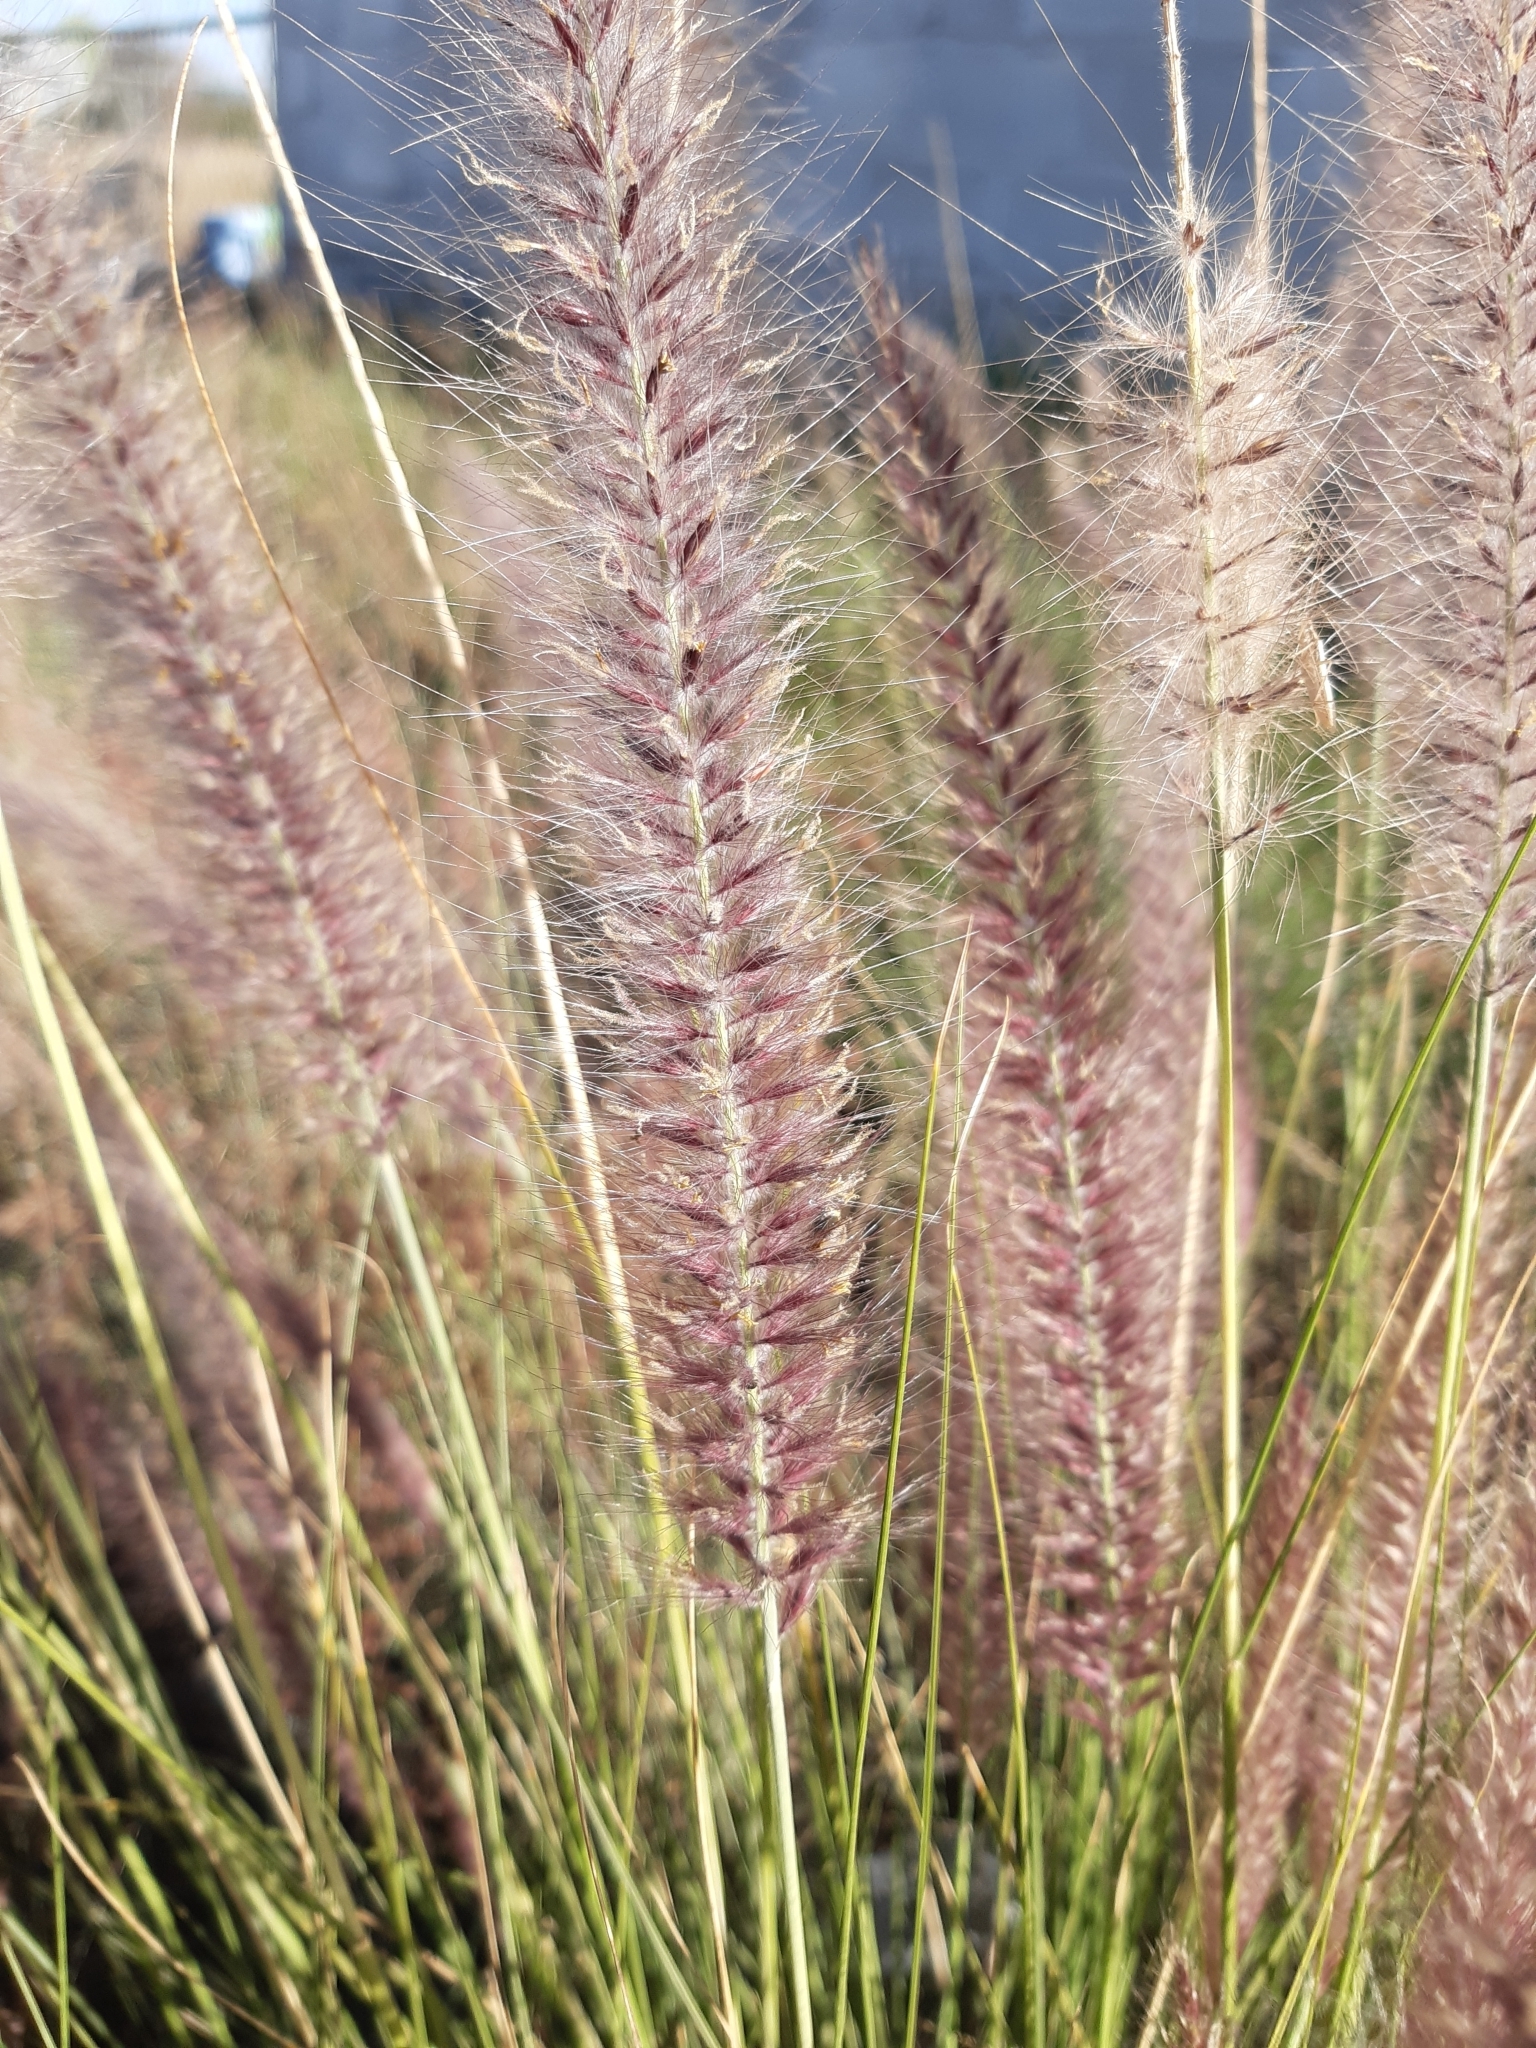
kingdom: Plantae
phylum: Tracheophyta
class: Liliopsida
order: Poales
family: Poaceae
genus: Cenchrus
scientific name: Cenchrus setaceus
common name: Crimson fountaingrass
